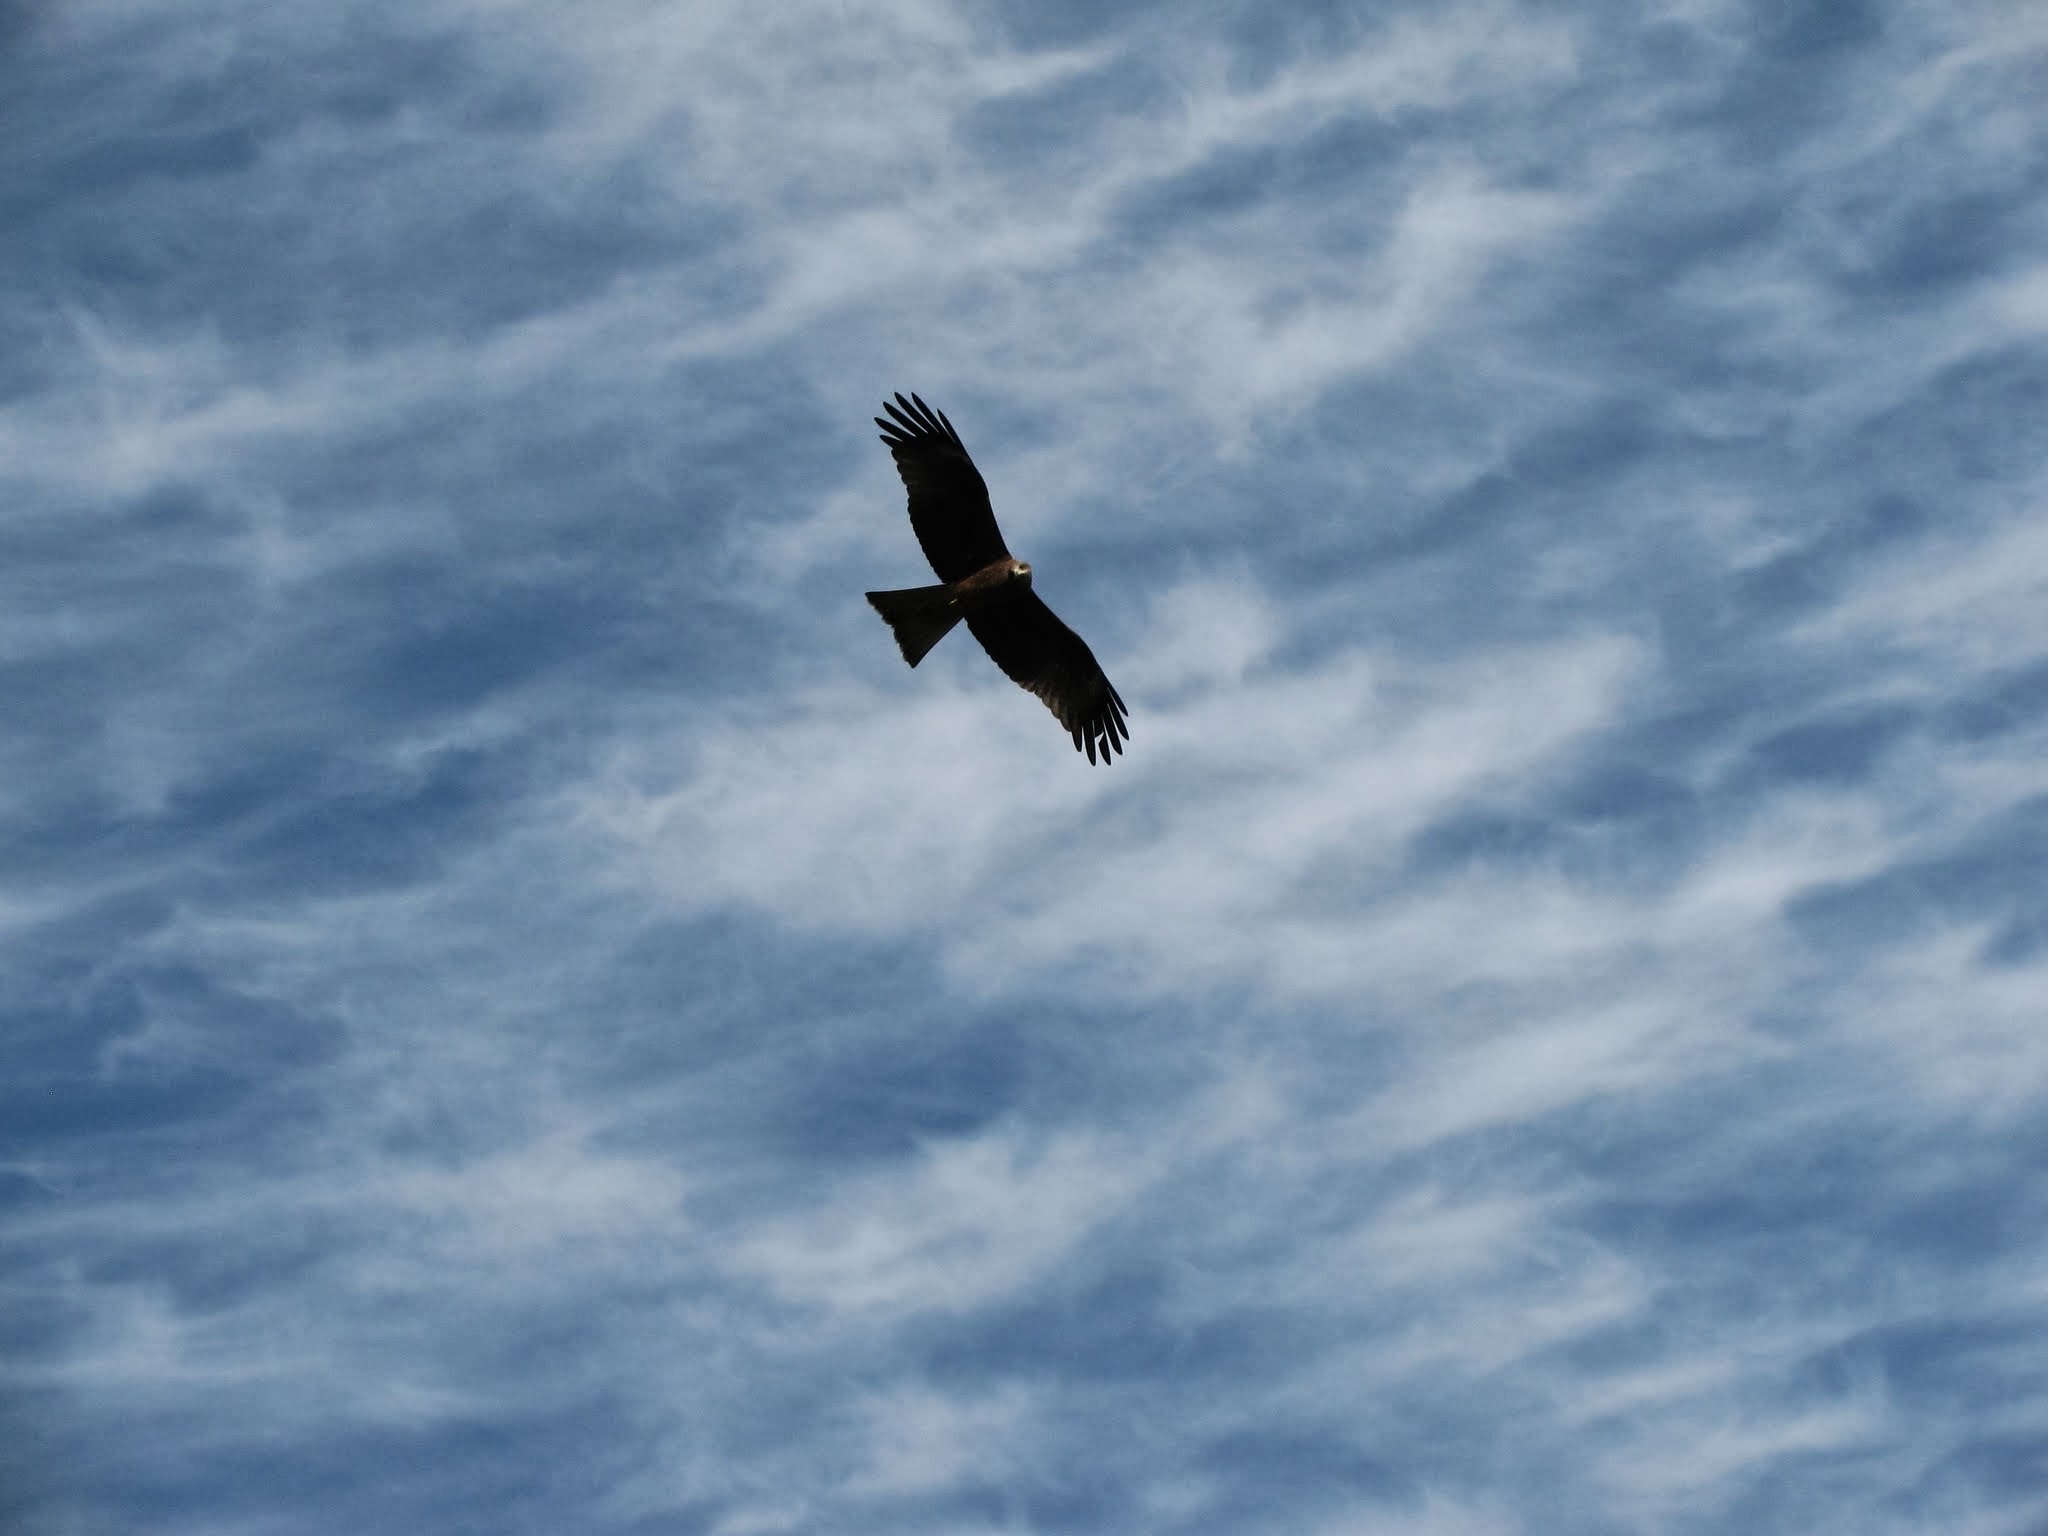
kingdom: Animalia
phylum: Chordata
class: Aves
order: Accipitriformes
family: Accipitridae
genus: Milvus
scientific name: Milvus migrans
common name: Black kite
